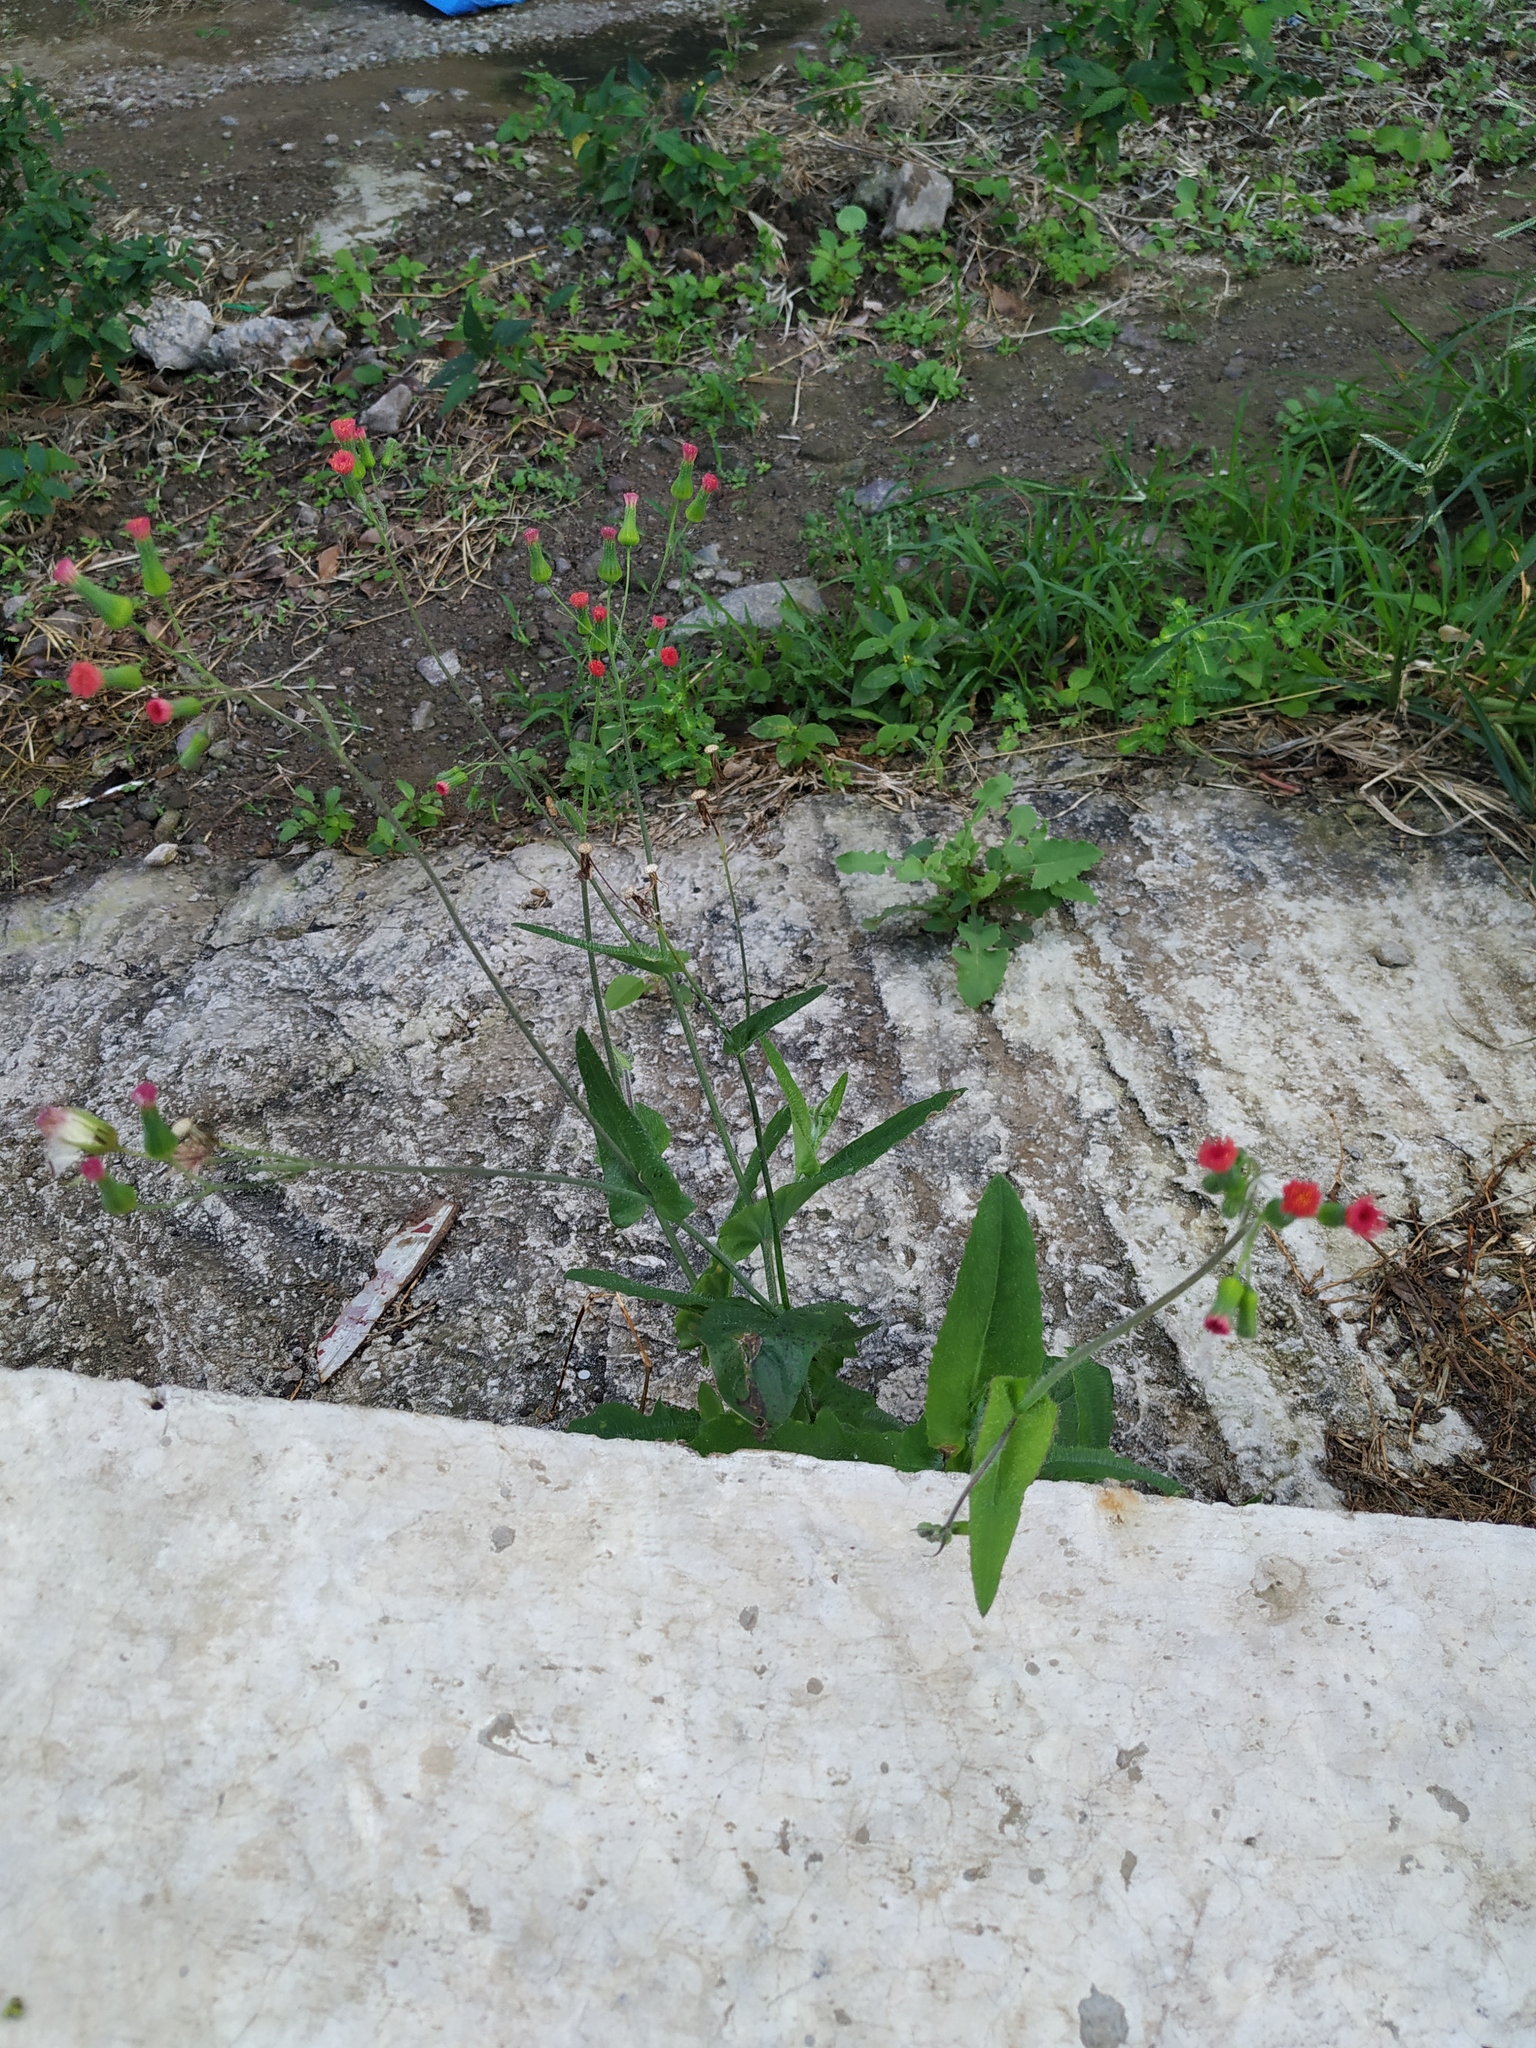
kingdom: Plantae
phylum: Tracheophyta
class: Magnoliopsida
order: Asterales
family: Asteraceae
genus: Emilia
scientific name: Emilia fosbergii
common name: Florida tasselflower
